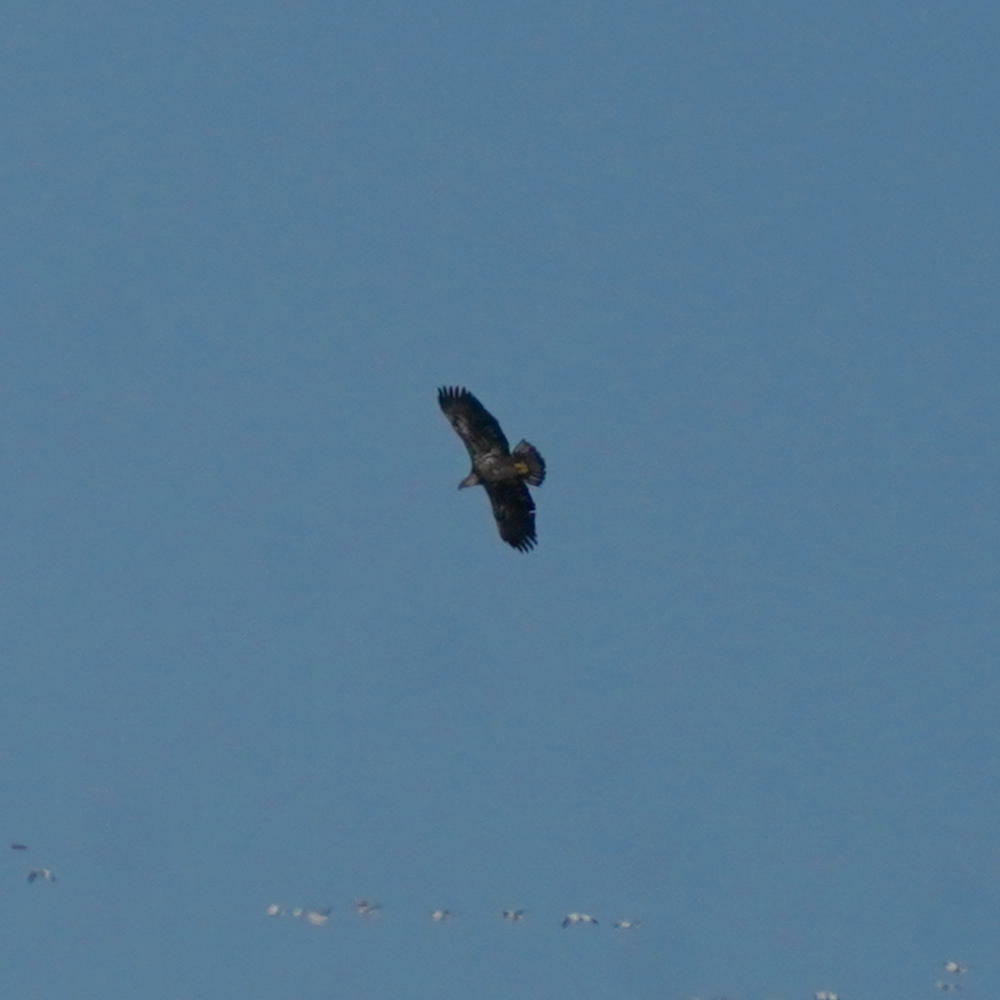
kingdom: Animalia
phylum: Chordata
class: Aves
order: Accipitriformes
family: Accipitridae
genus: Haliaeetus
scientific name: Haliaeetus leucocephalus
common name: Bald eagle
